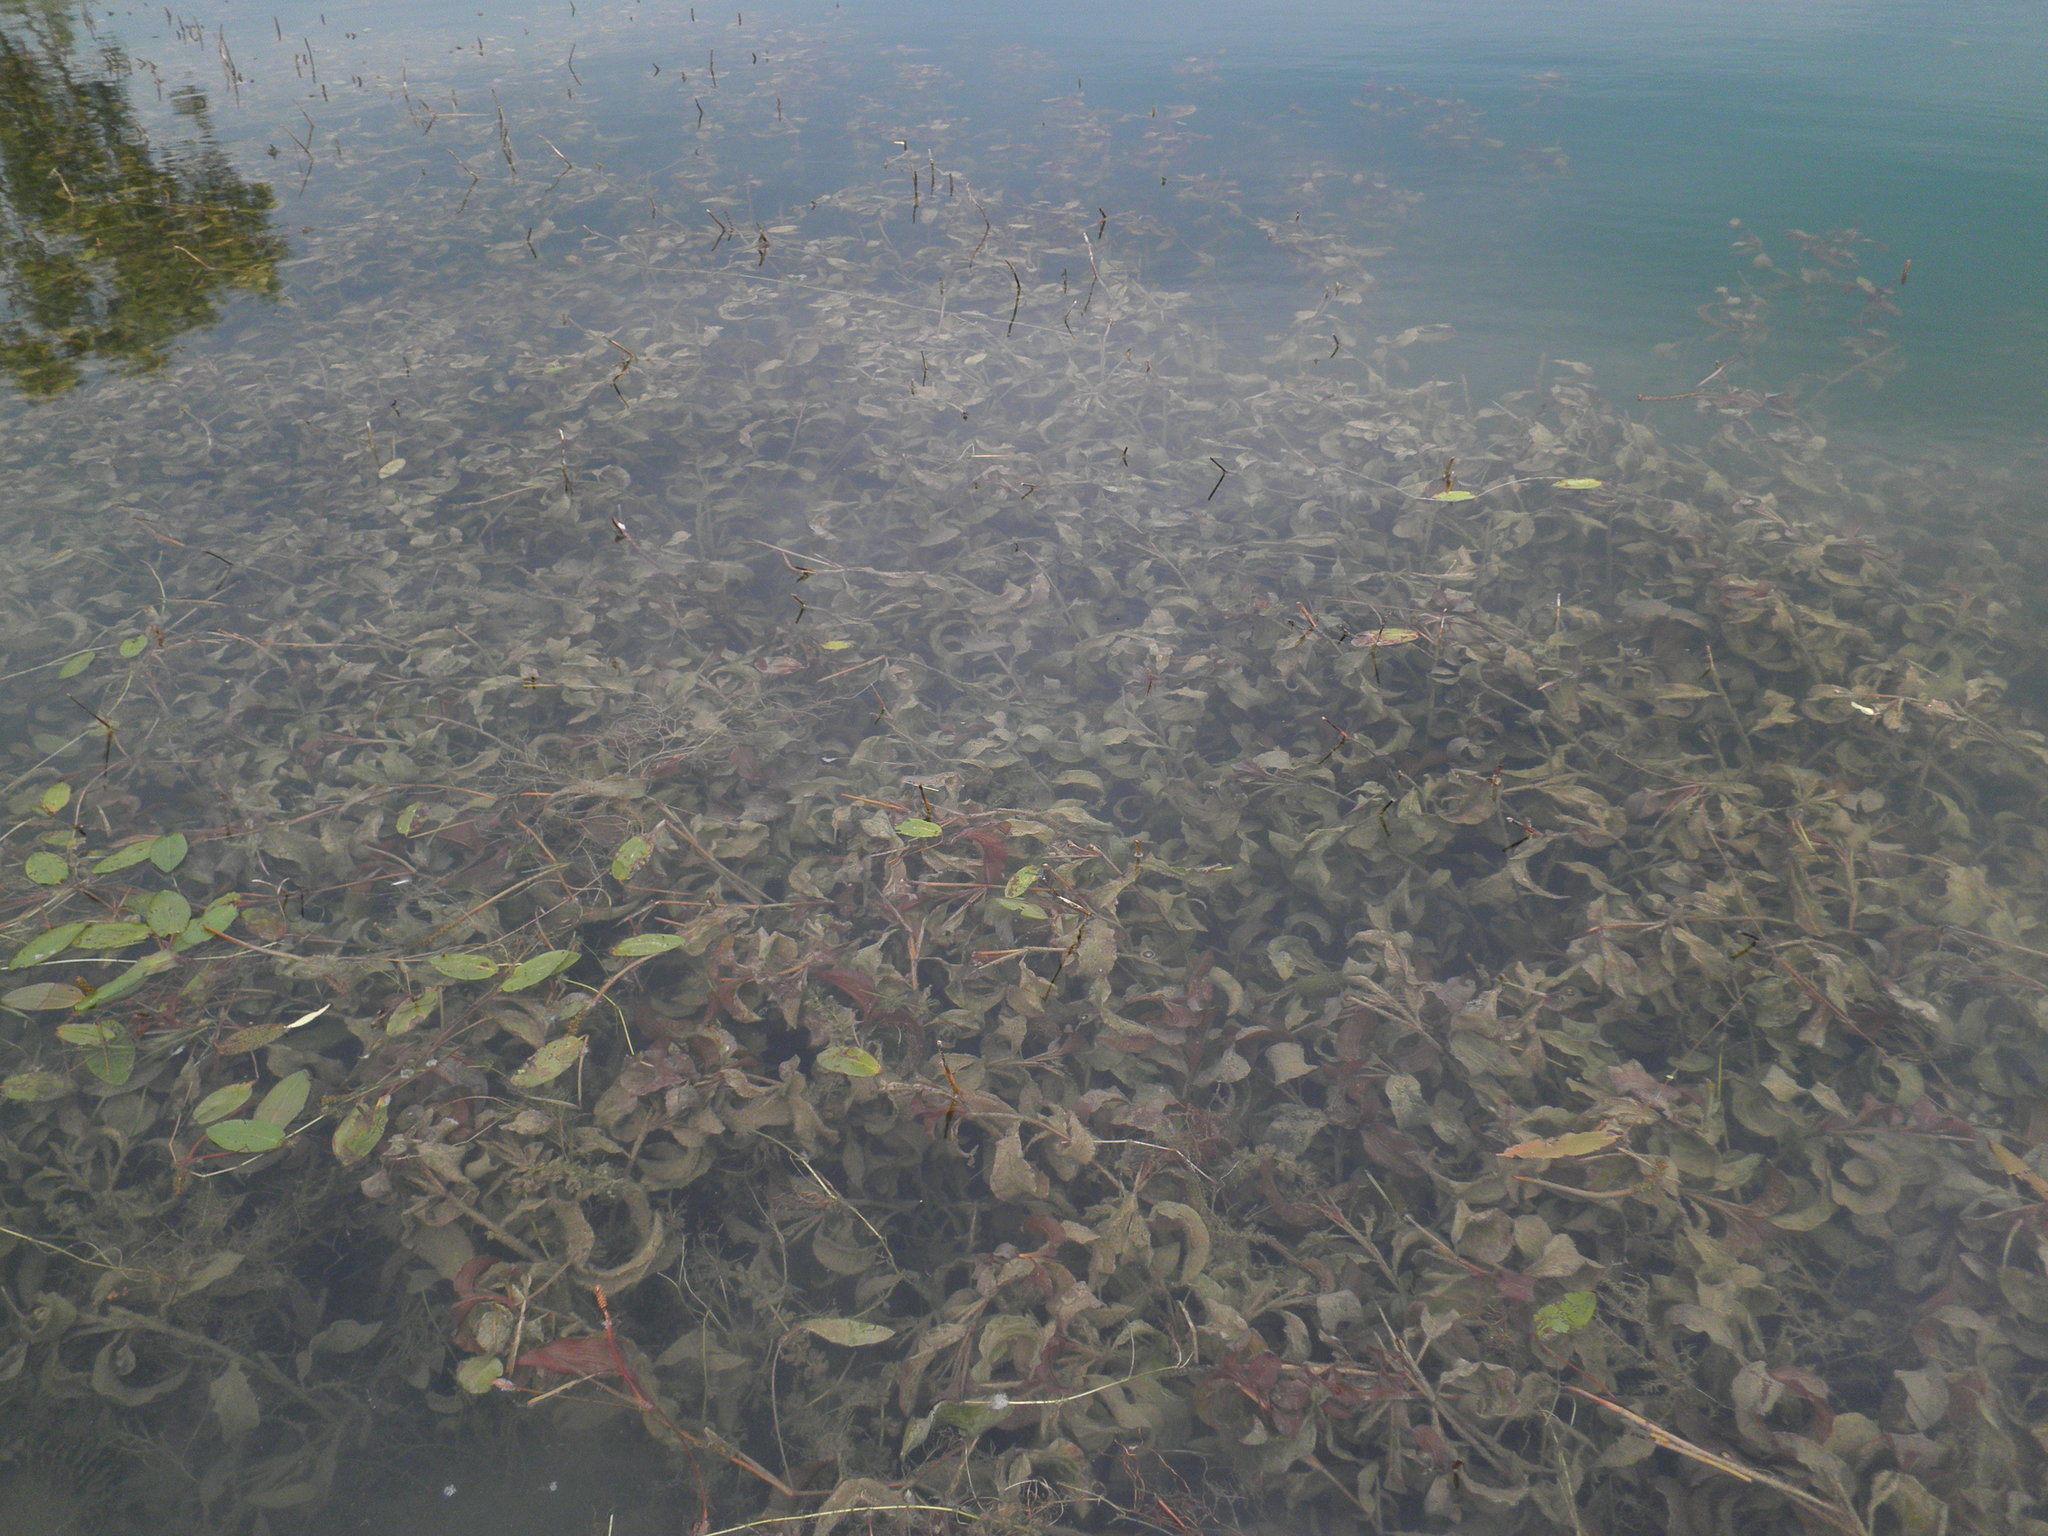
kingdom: Plantae
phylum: Tracheophyta
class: Liliopsida
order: Alismatales
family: Potamogetonaceae
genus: Potamogeton
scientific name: Potamogeton amplifolius
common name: Broad-leaved pondweed
